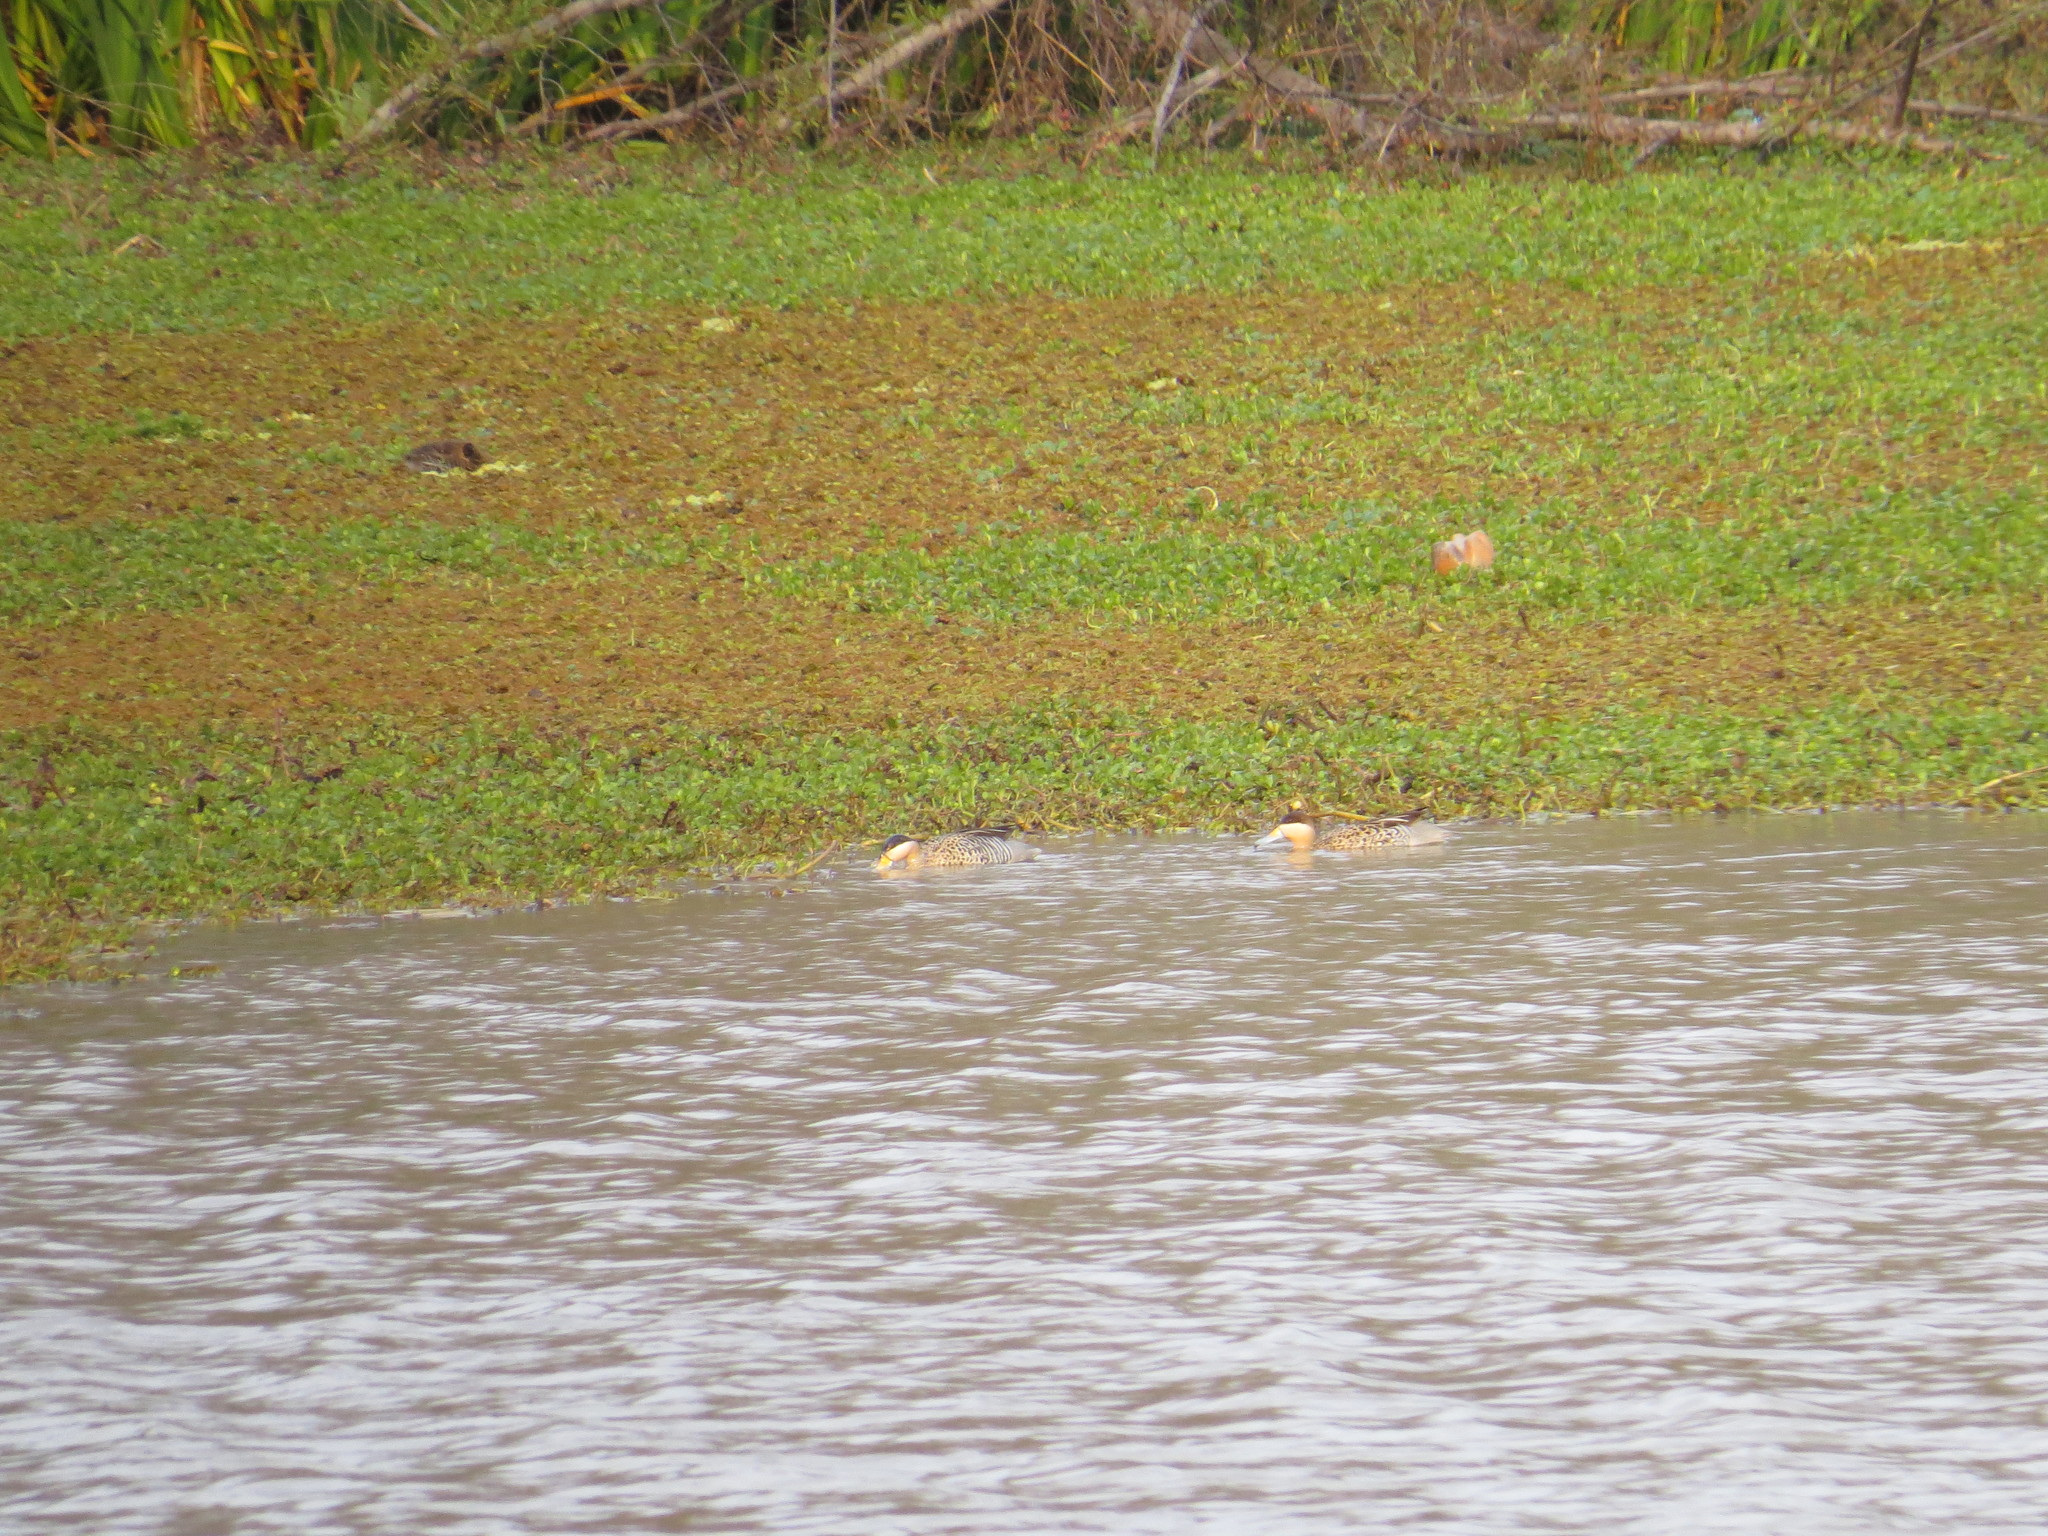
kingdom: Animalia
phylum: Chordata
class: Aves
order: Anseriformes
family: Anatidae
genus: Spatula
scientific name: Spatula versicolor
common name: Silver teal
